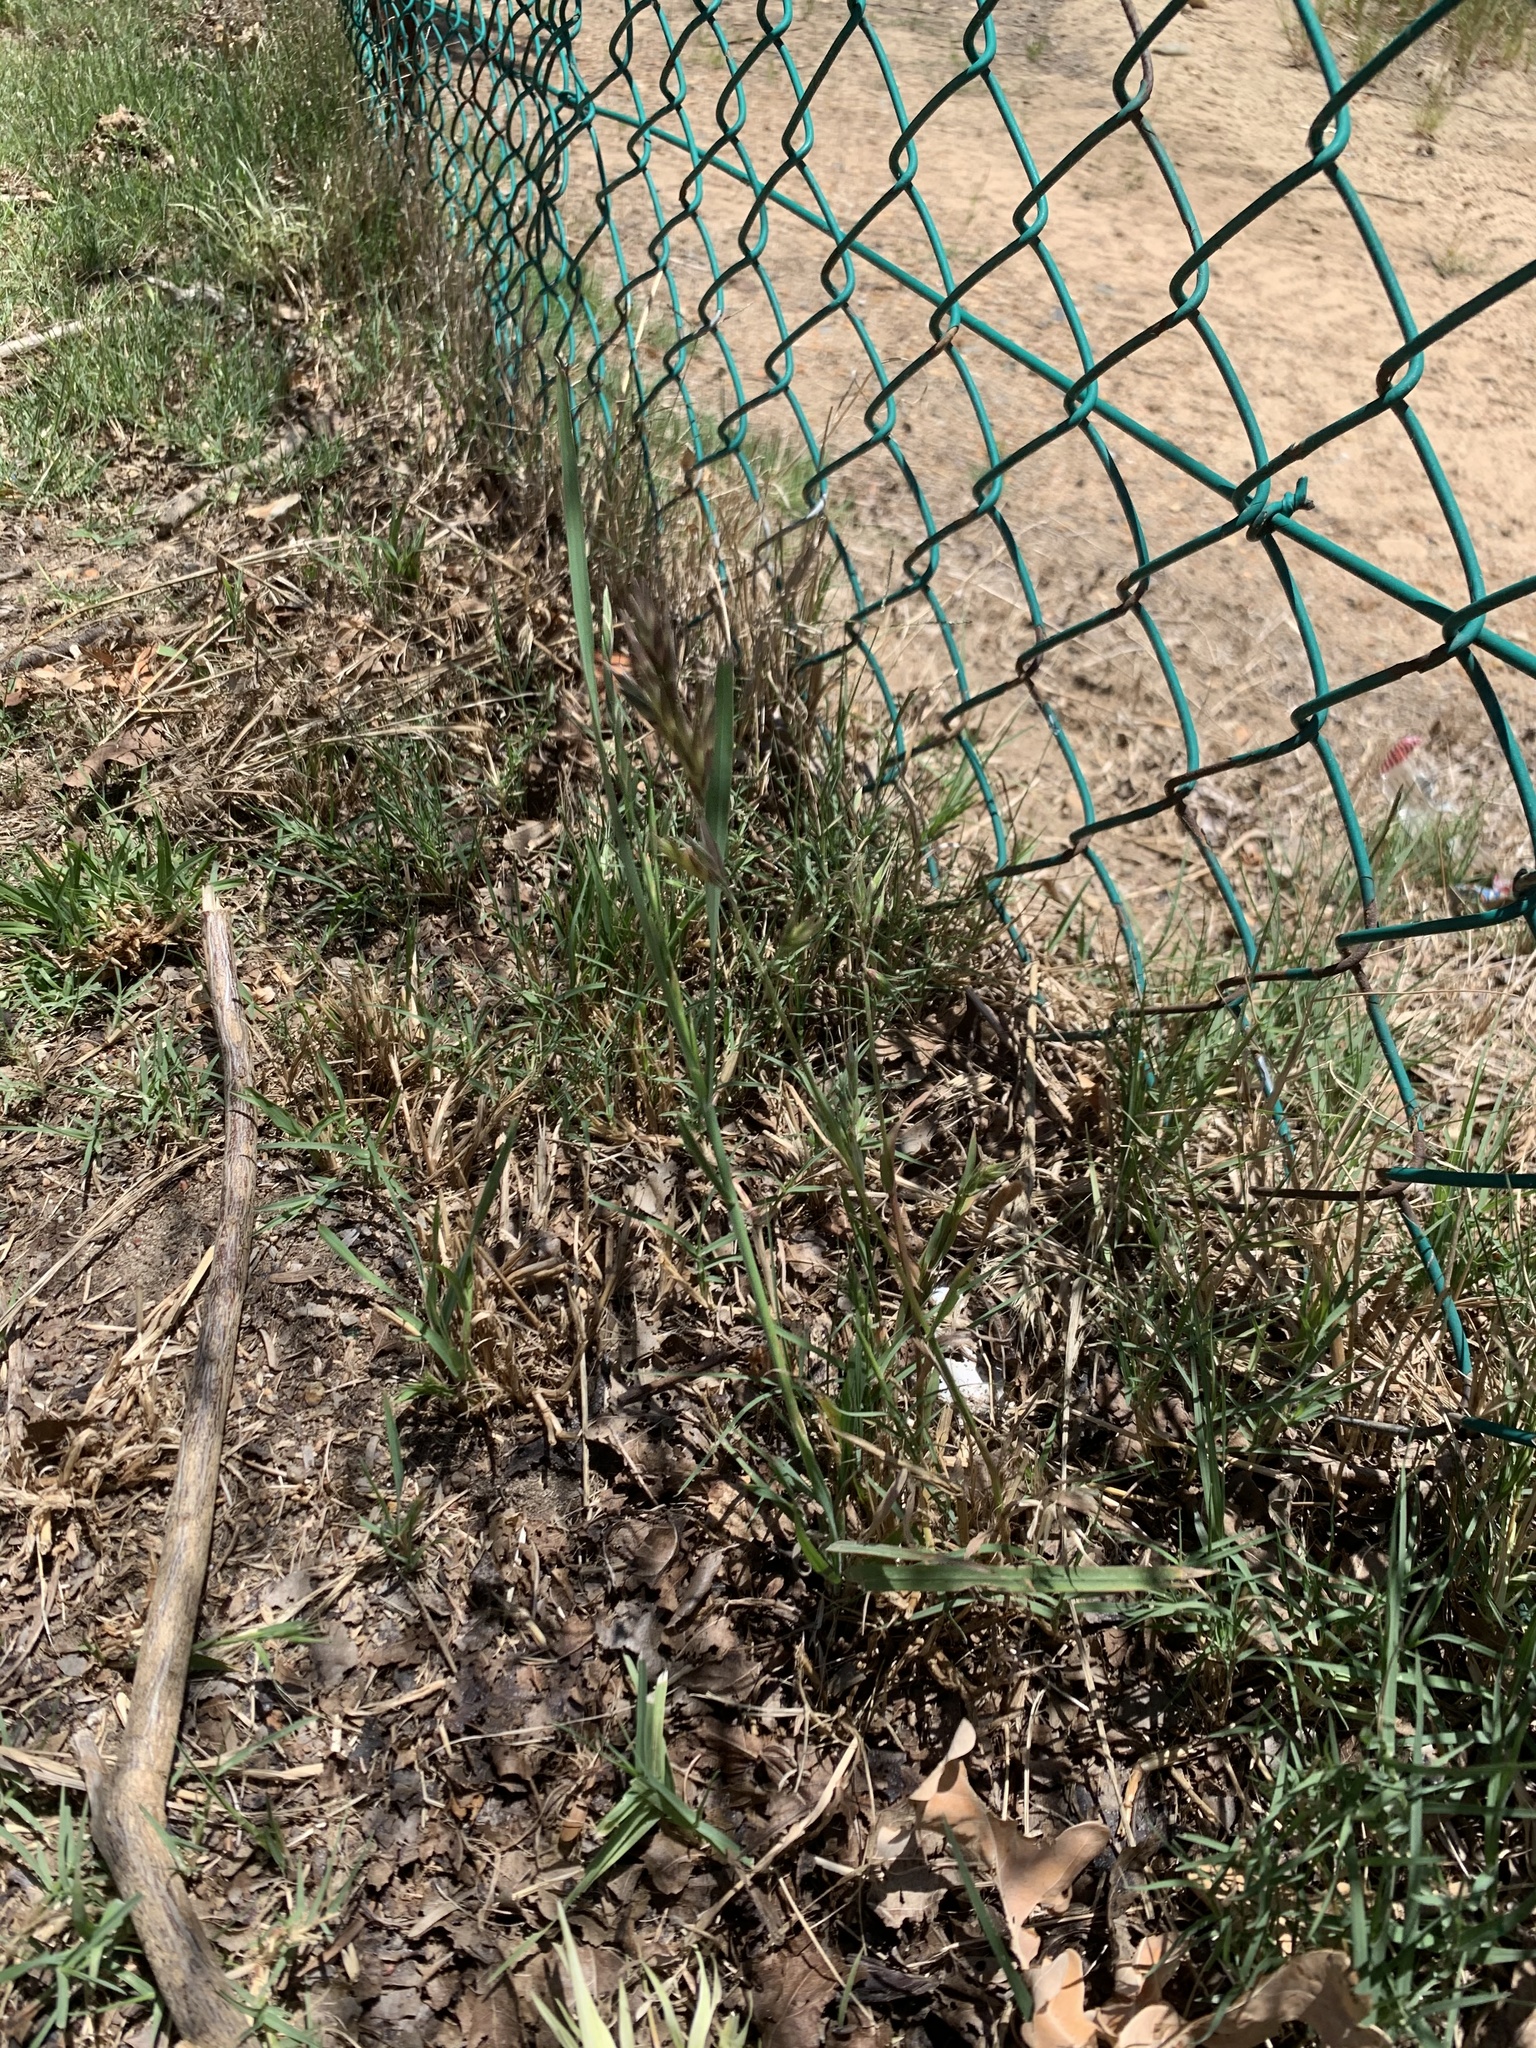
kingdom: Plantae
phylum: Tracheophyta
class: Liliopsida
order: Poales
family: Poaceae
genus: Bromus
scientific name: Bromus catharticus
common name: Rescuegrass
